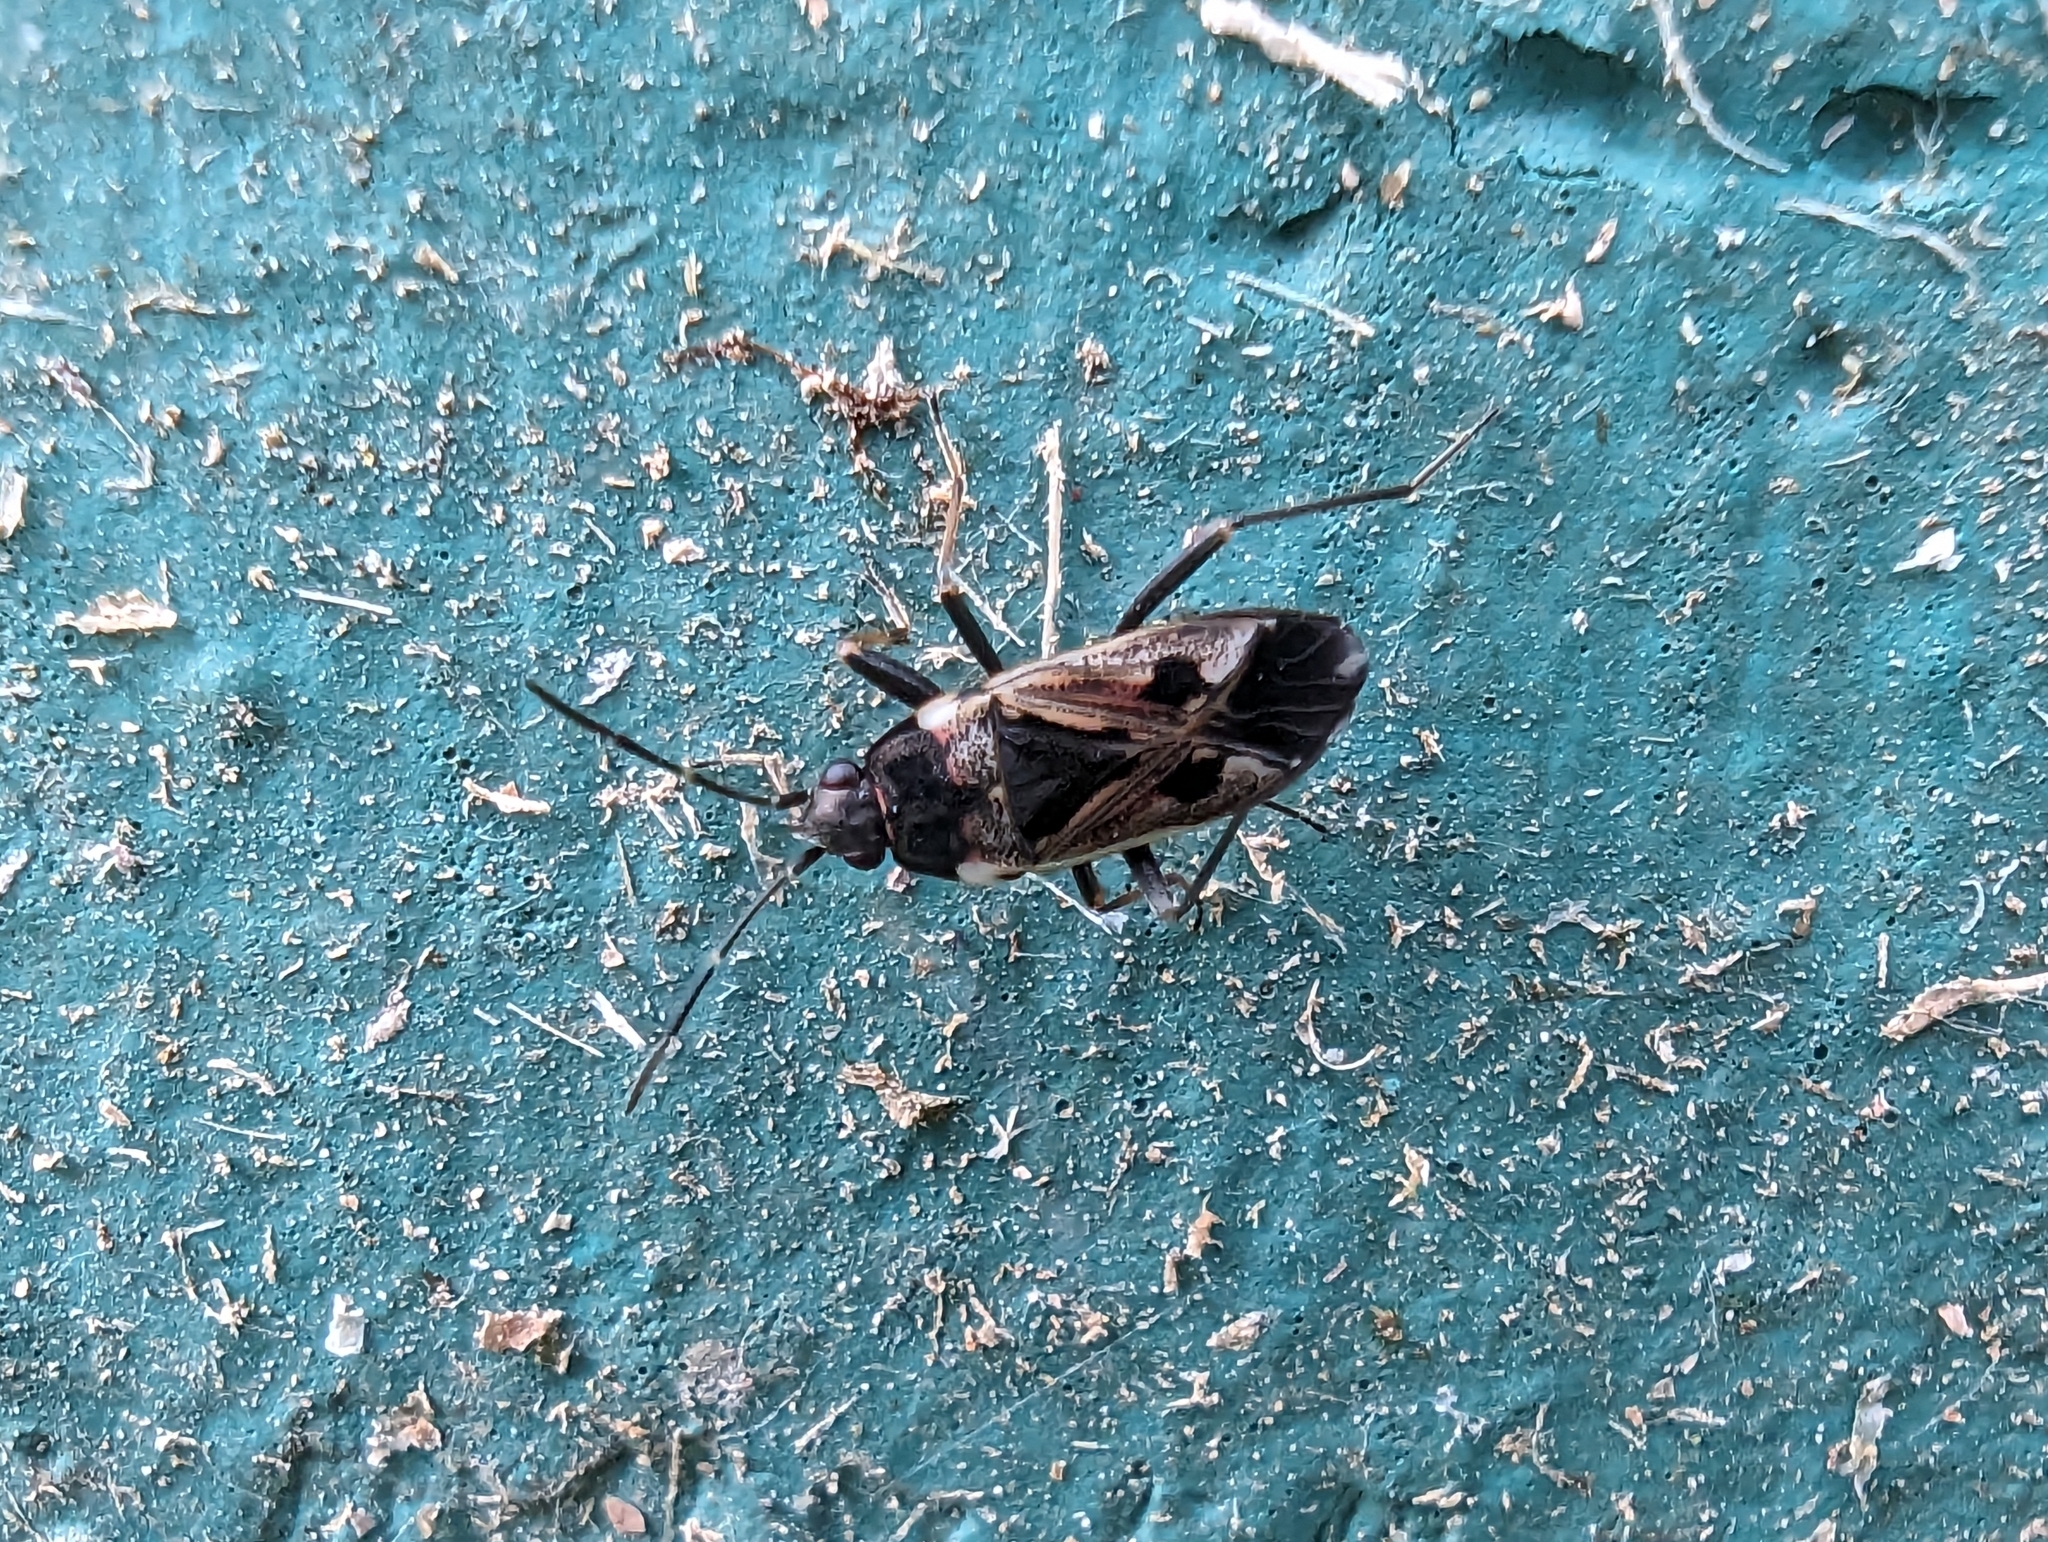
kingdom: Animalia
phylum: Arthropoda
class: Insecta
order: Hemiptera
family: Rhyparochromidae
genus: Rhyparochromus
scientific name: Rhyparochromus vulgaris
